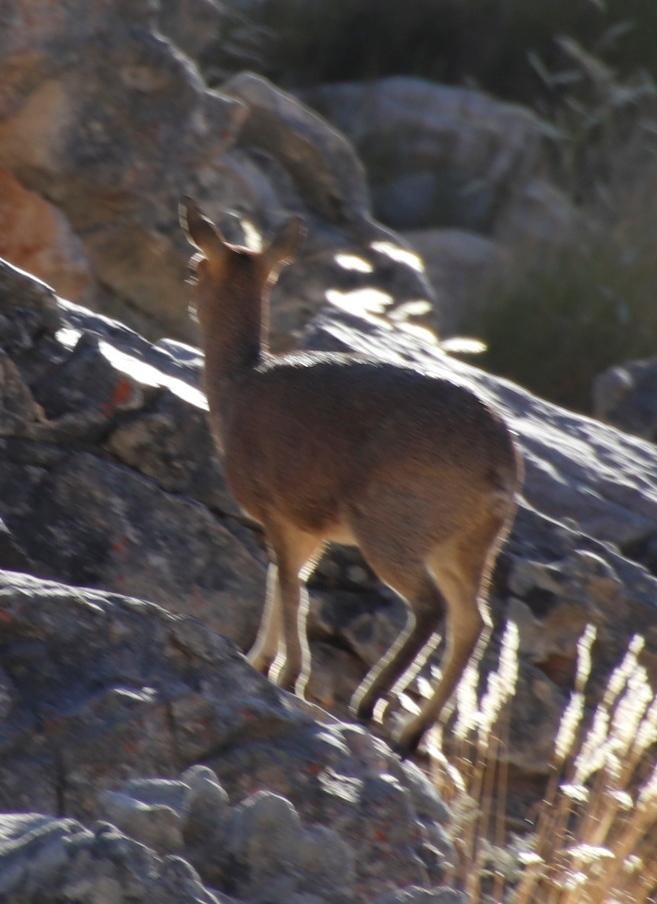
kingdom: Animalia
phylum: Chordata
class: Mammalia
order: Artiodactyla
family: Bovidae
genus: Oreotragus
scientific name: Oreotragus oreotragus
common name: Klipspringer
